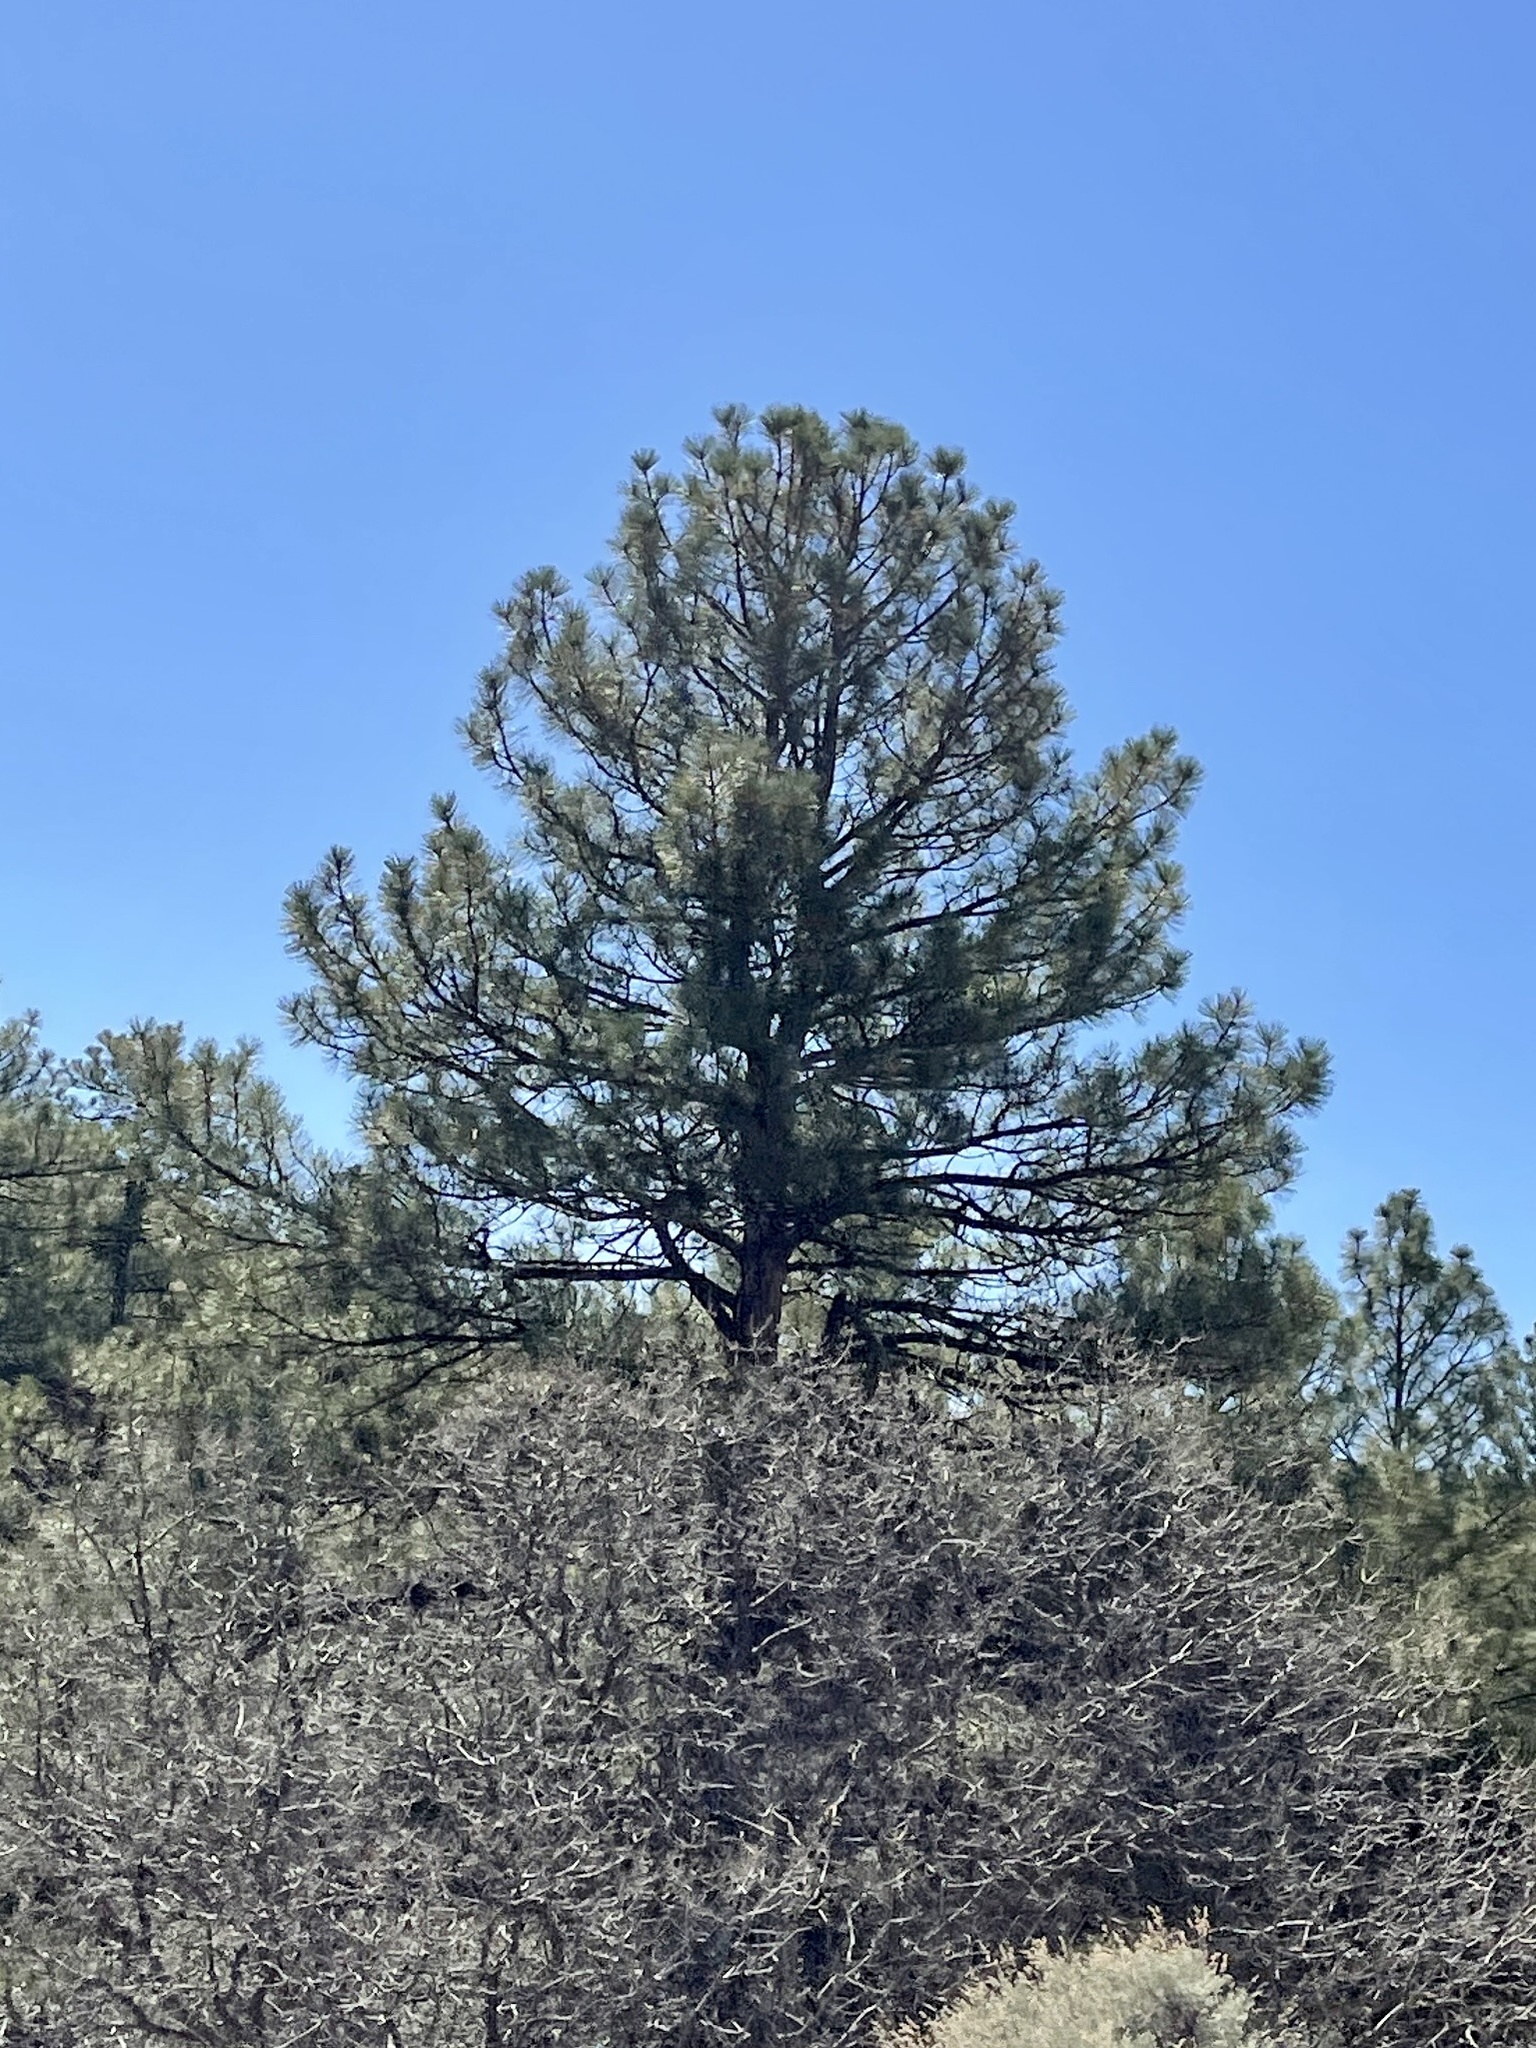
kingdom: Plantae
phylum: Tracheophyta
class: Pinopsida
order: Pinales
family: Pinaceae
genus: Pinus
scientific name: Pinus ponderosa
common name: Western yellow-pine
